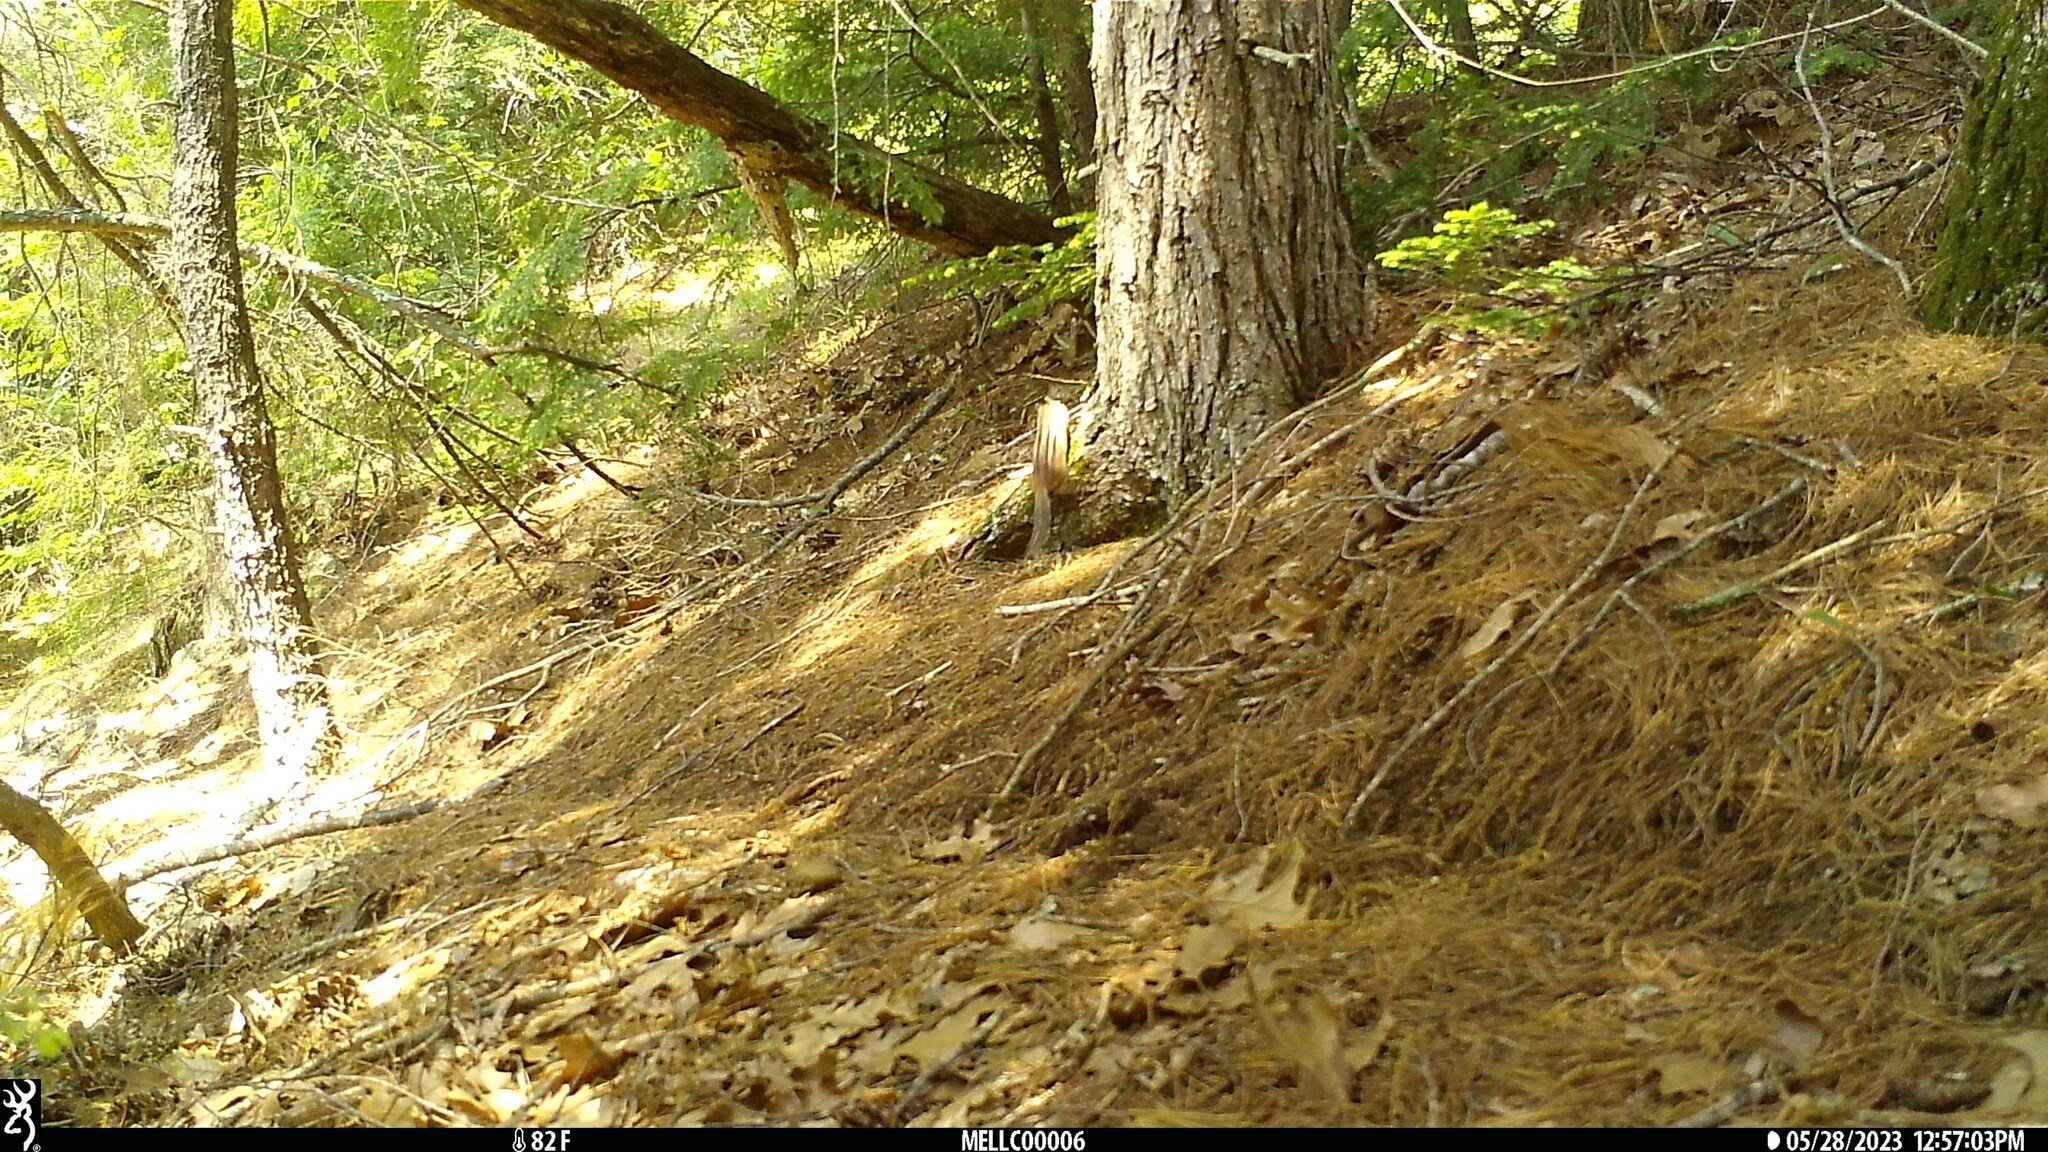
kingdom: Animalia
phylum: Chordata
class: Mammalia
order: Rodentia
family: Sciuridae
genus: Tamias
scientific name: Tamias striatus
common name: Eastern chipmunk
